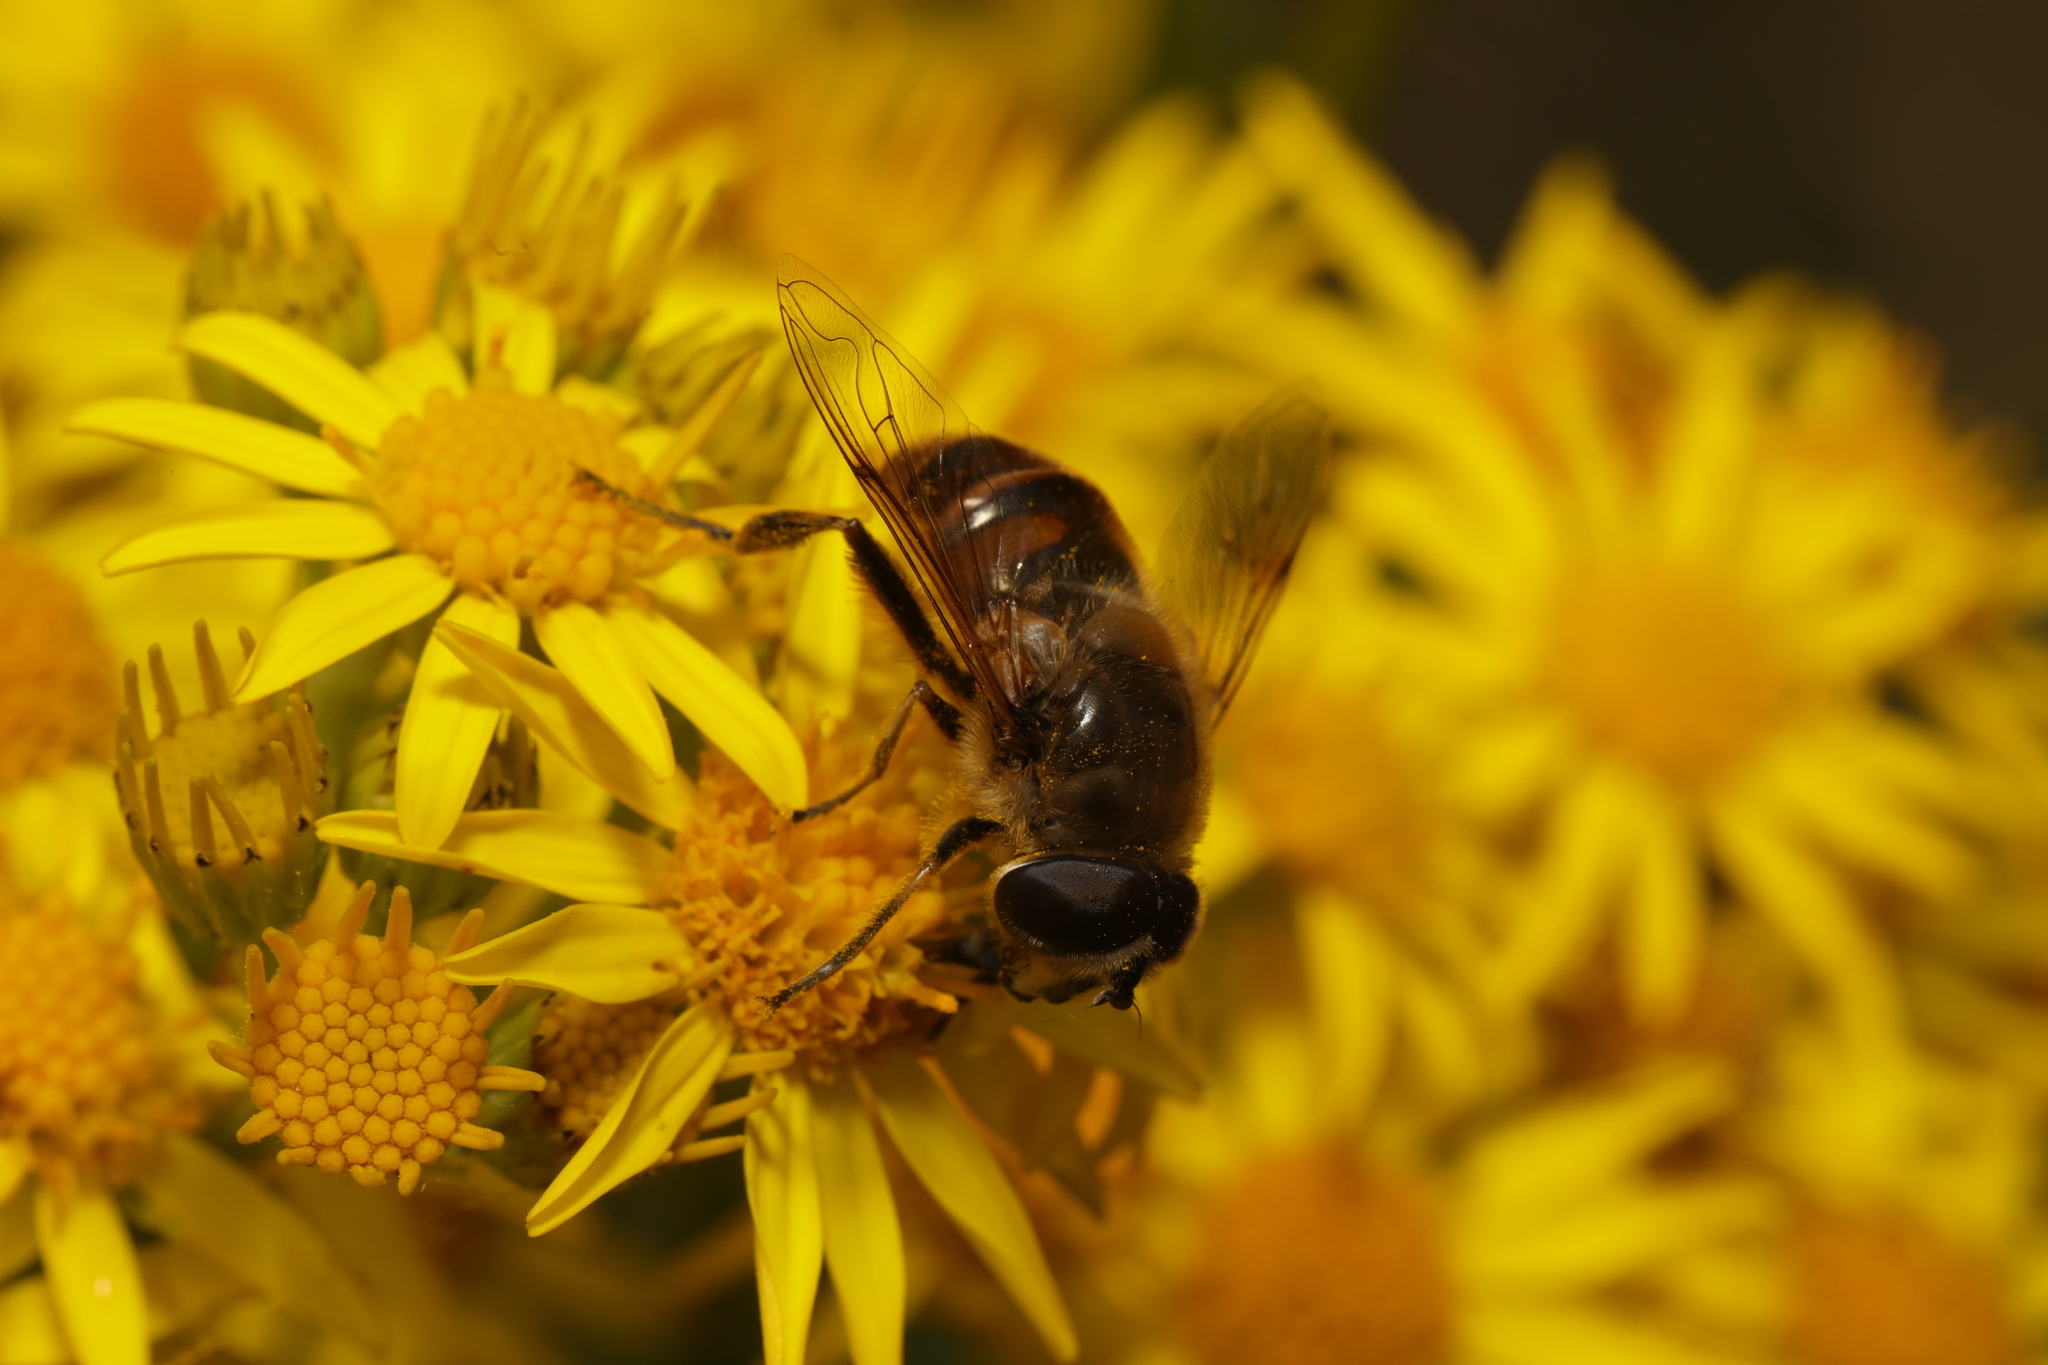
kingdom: Animalia
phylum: Arthropoda
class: Insecta
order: Diptera
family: Syrphidae
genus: Eristalis
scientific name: Eristalis tenax
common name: Drone fly
